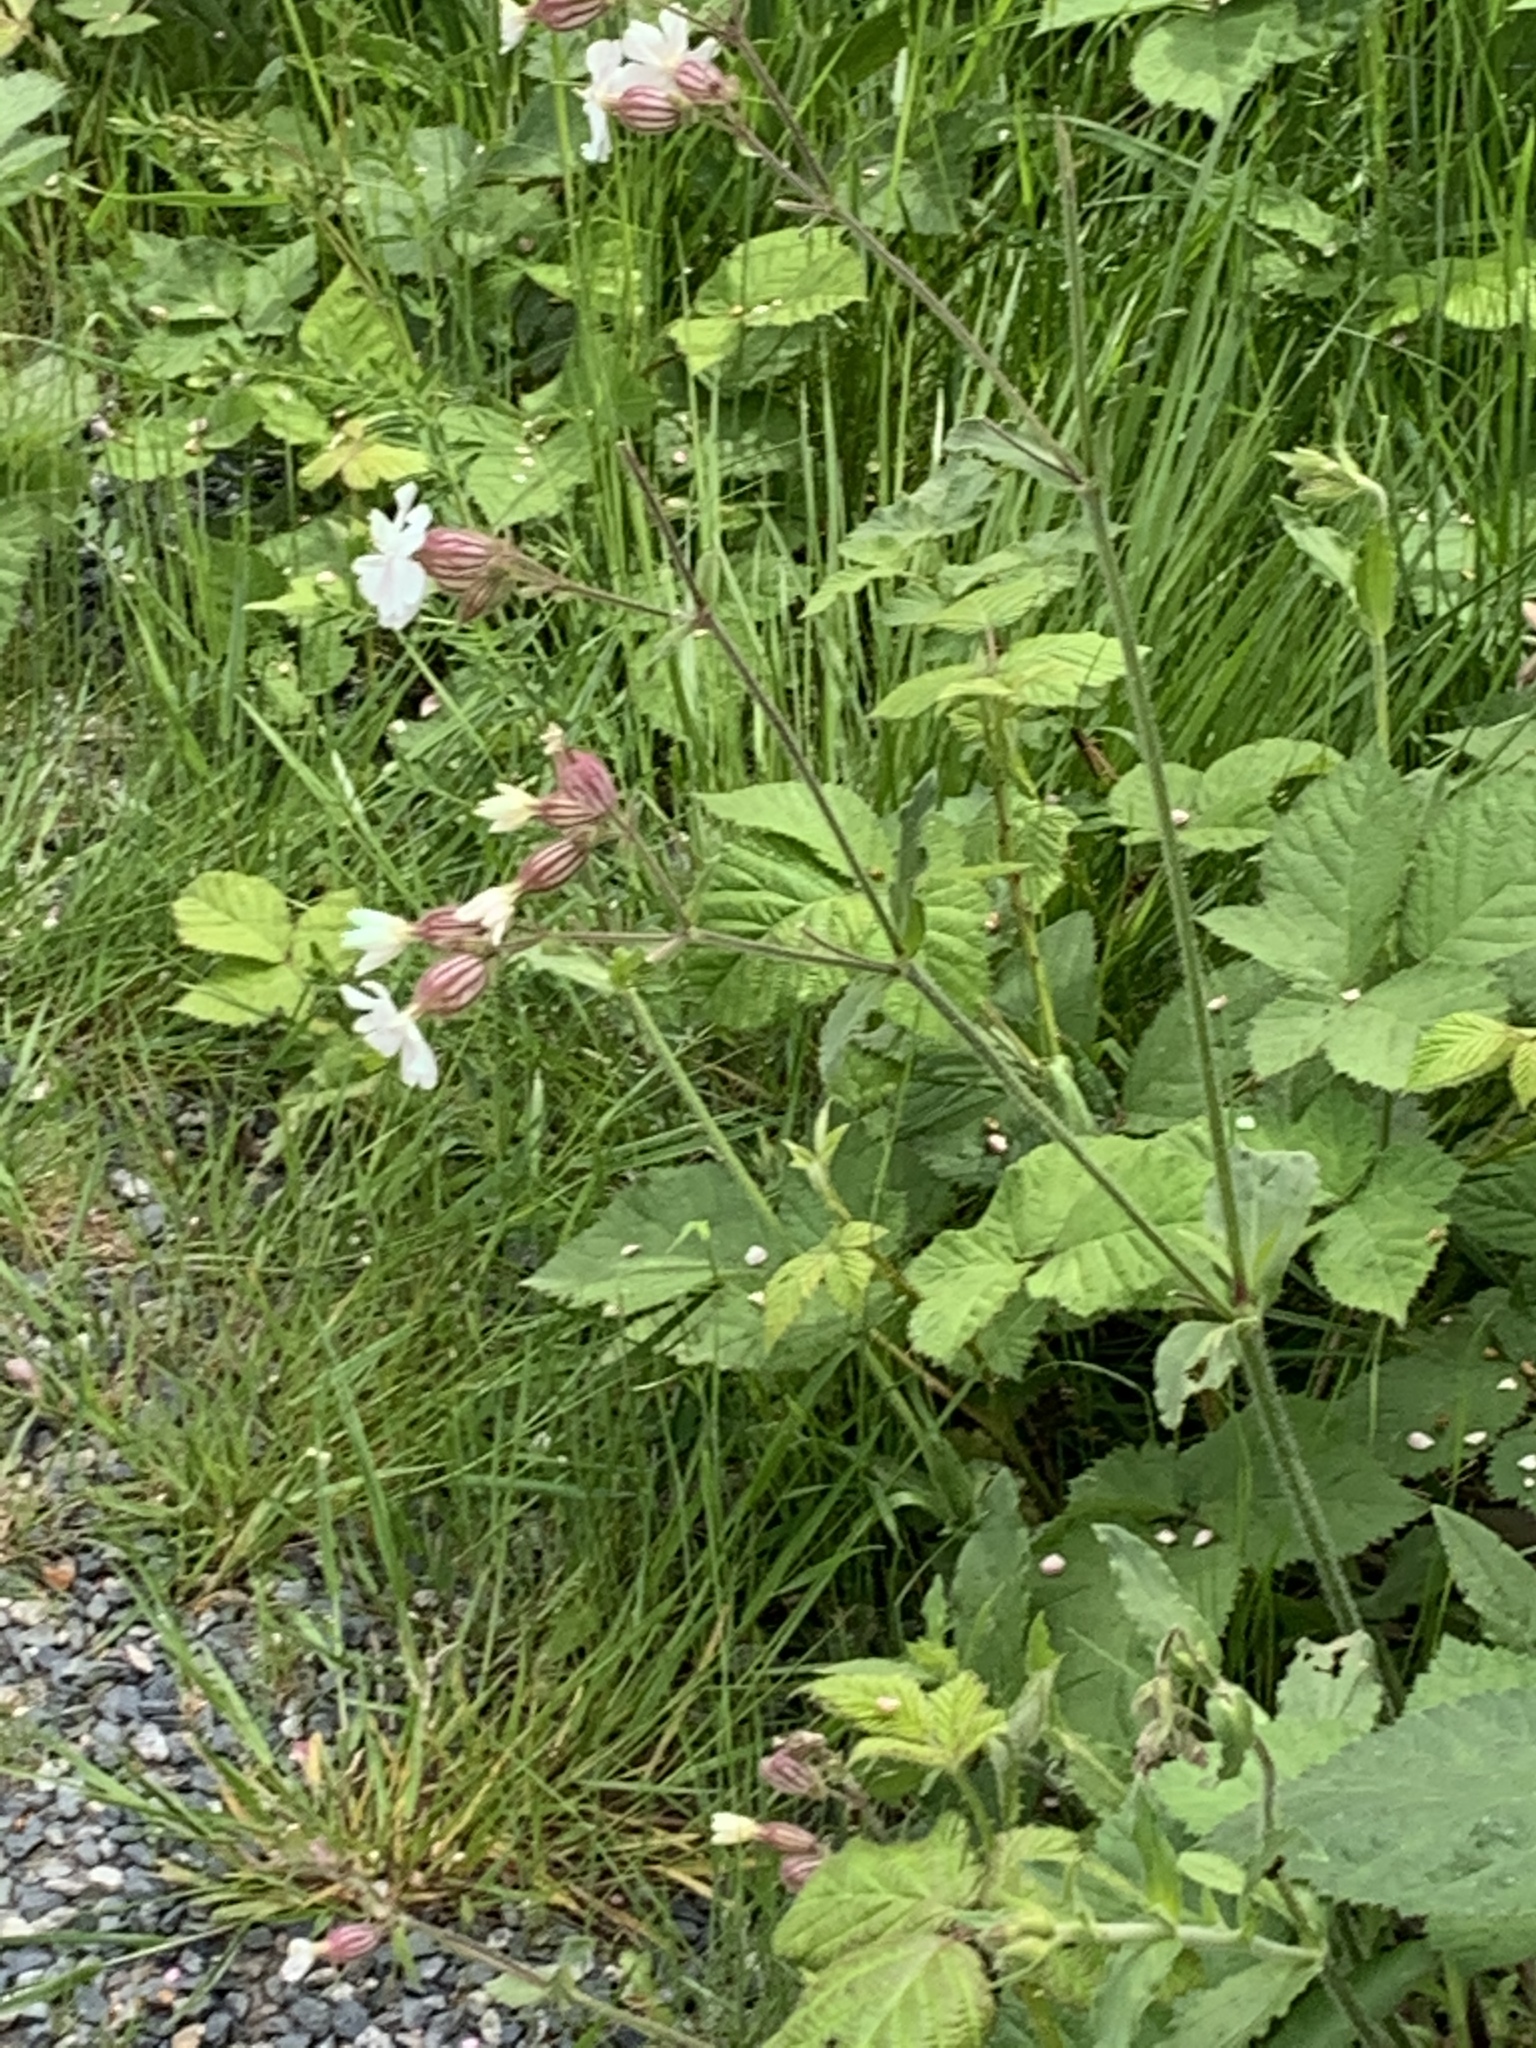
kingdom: Plantae
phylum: Tracheophyta
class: Magnoliopsida
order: Caryophyllales
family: Caryophyllaceae
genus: Silene
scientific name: Silene latifolia
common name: White campion
